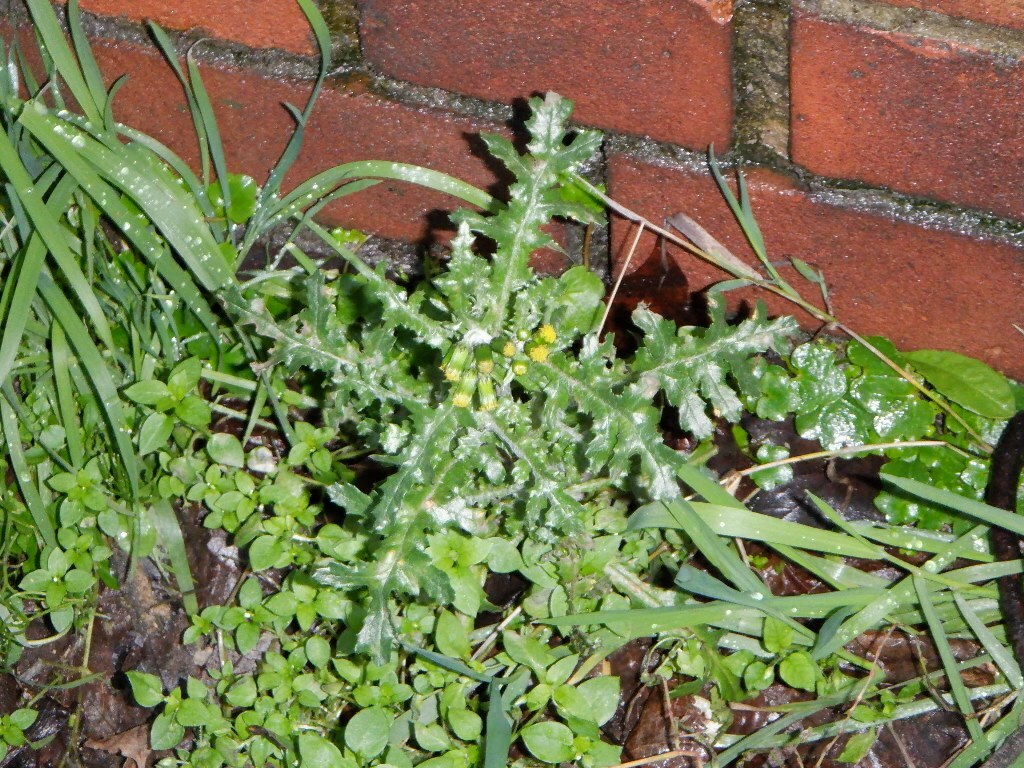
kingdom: Plantae
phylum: Tracheophyta
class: Magnoliopsida
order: Asterales
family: Asteraceae
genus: Senecio
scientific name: Senecio vulgaris
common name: Old-man-in-the-spring
